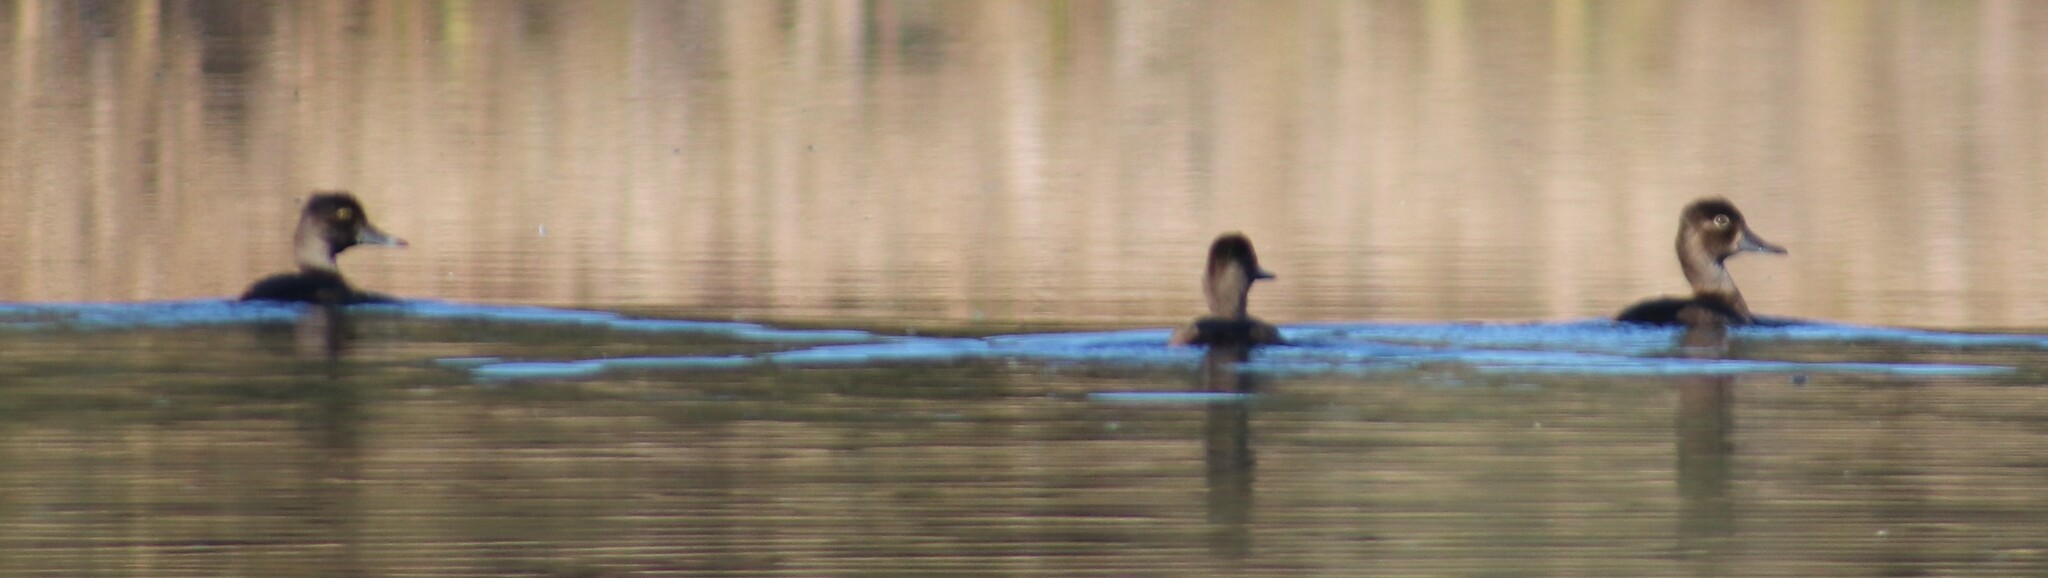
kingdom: Animalia
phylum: Chordata
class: Aves
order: Anseriformes
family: Anatidae
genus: Aythya
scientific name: Aythya collaris
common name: Ring-necked duck
